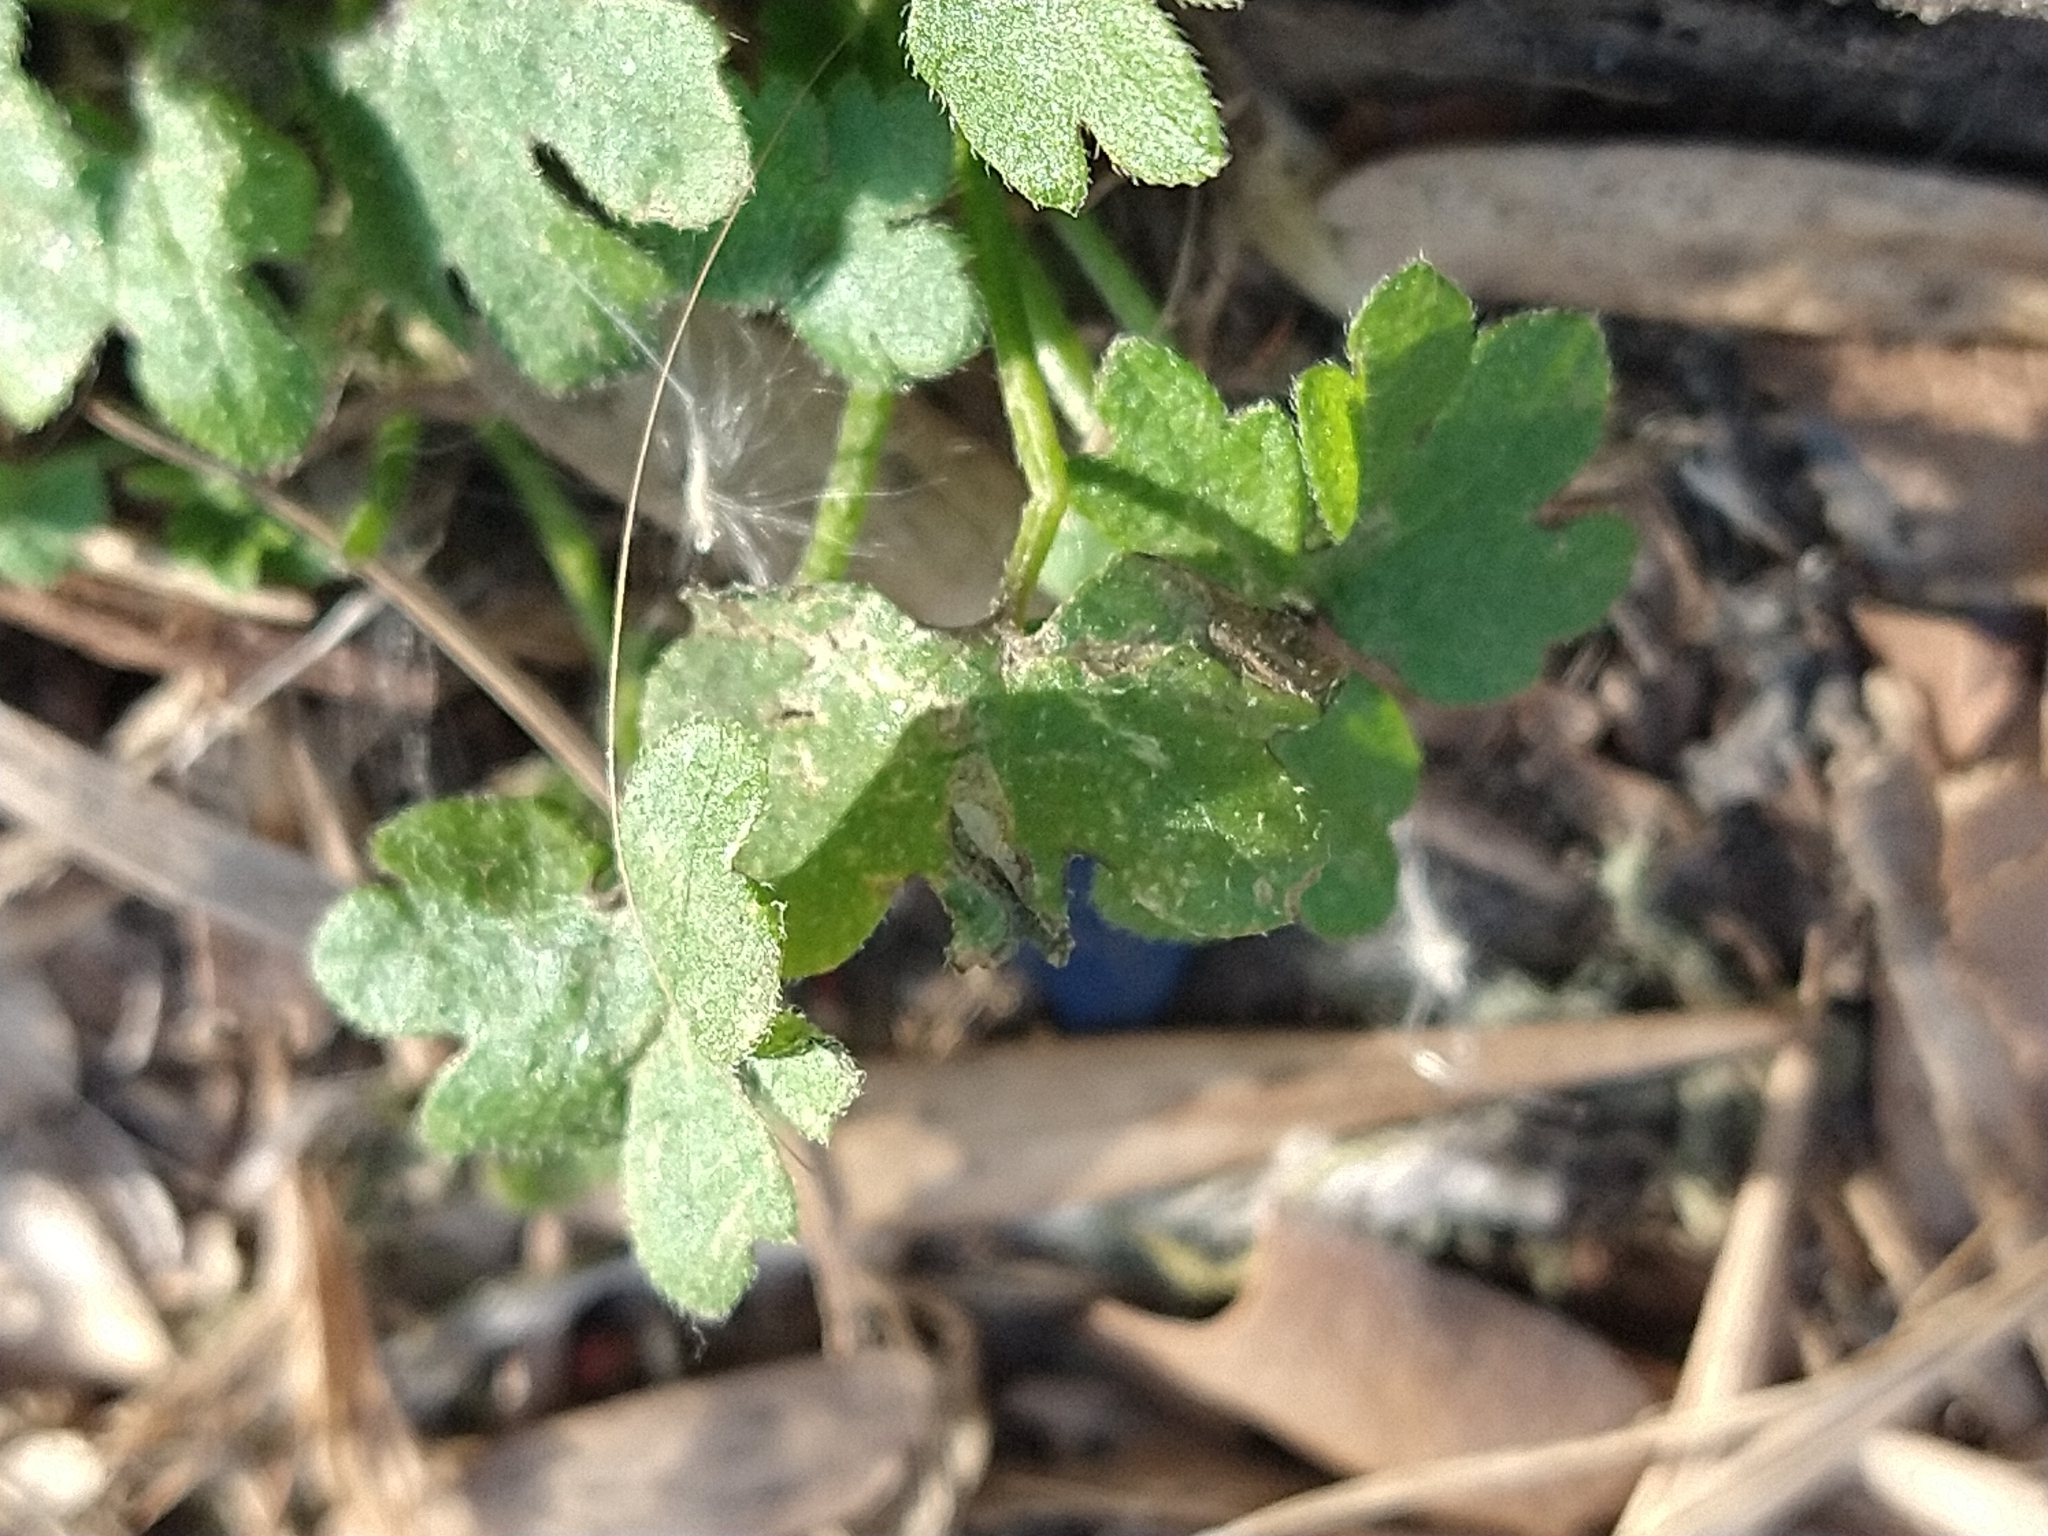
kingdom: Plantae
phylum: Tracheophyta
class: Magnoliopsida
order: Apiales
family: Apiaceae
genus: Bowlesia
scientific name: Bowlesia incana
